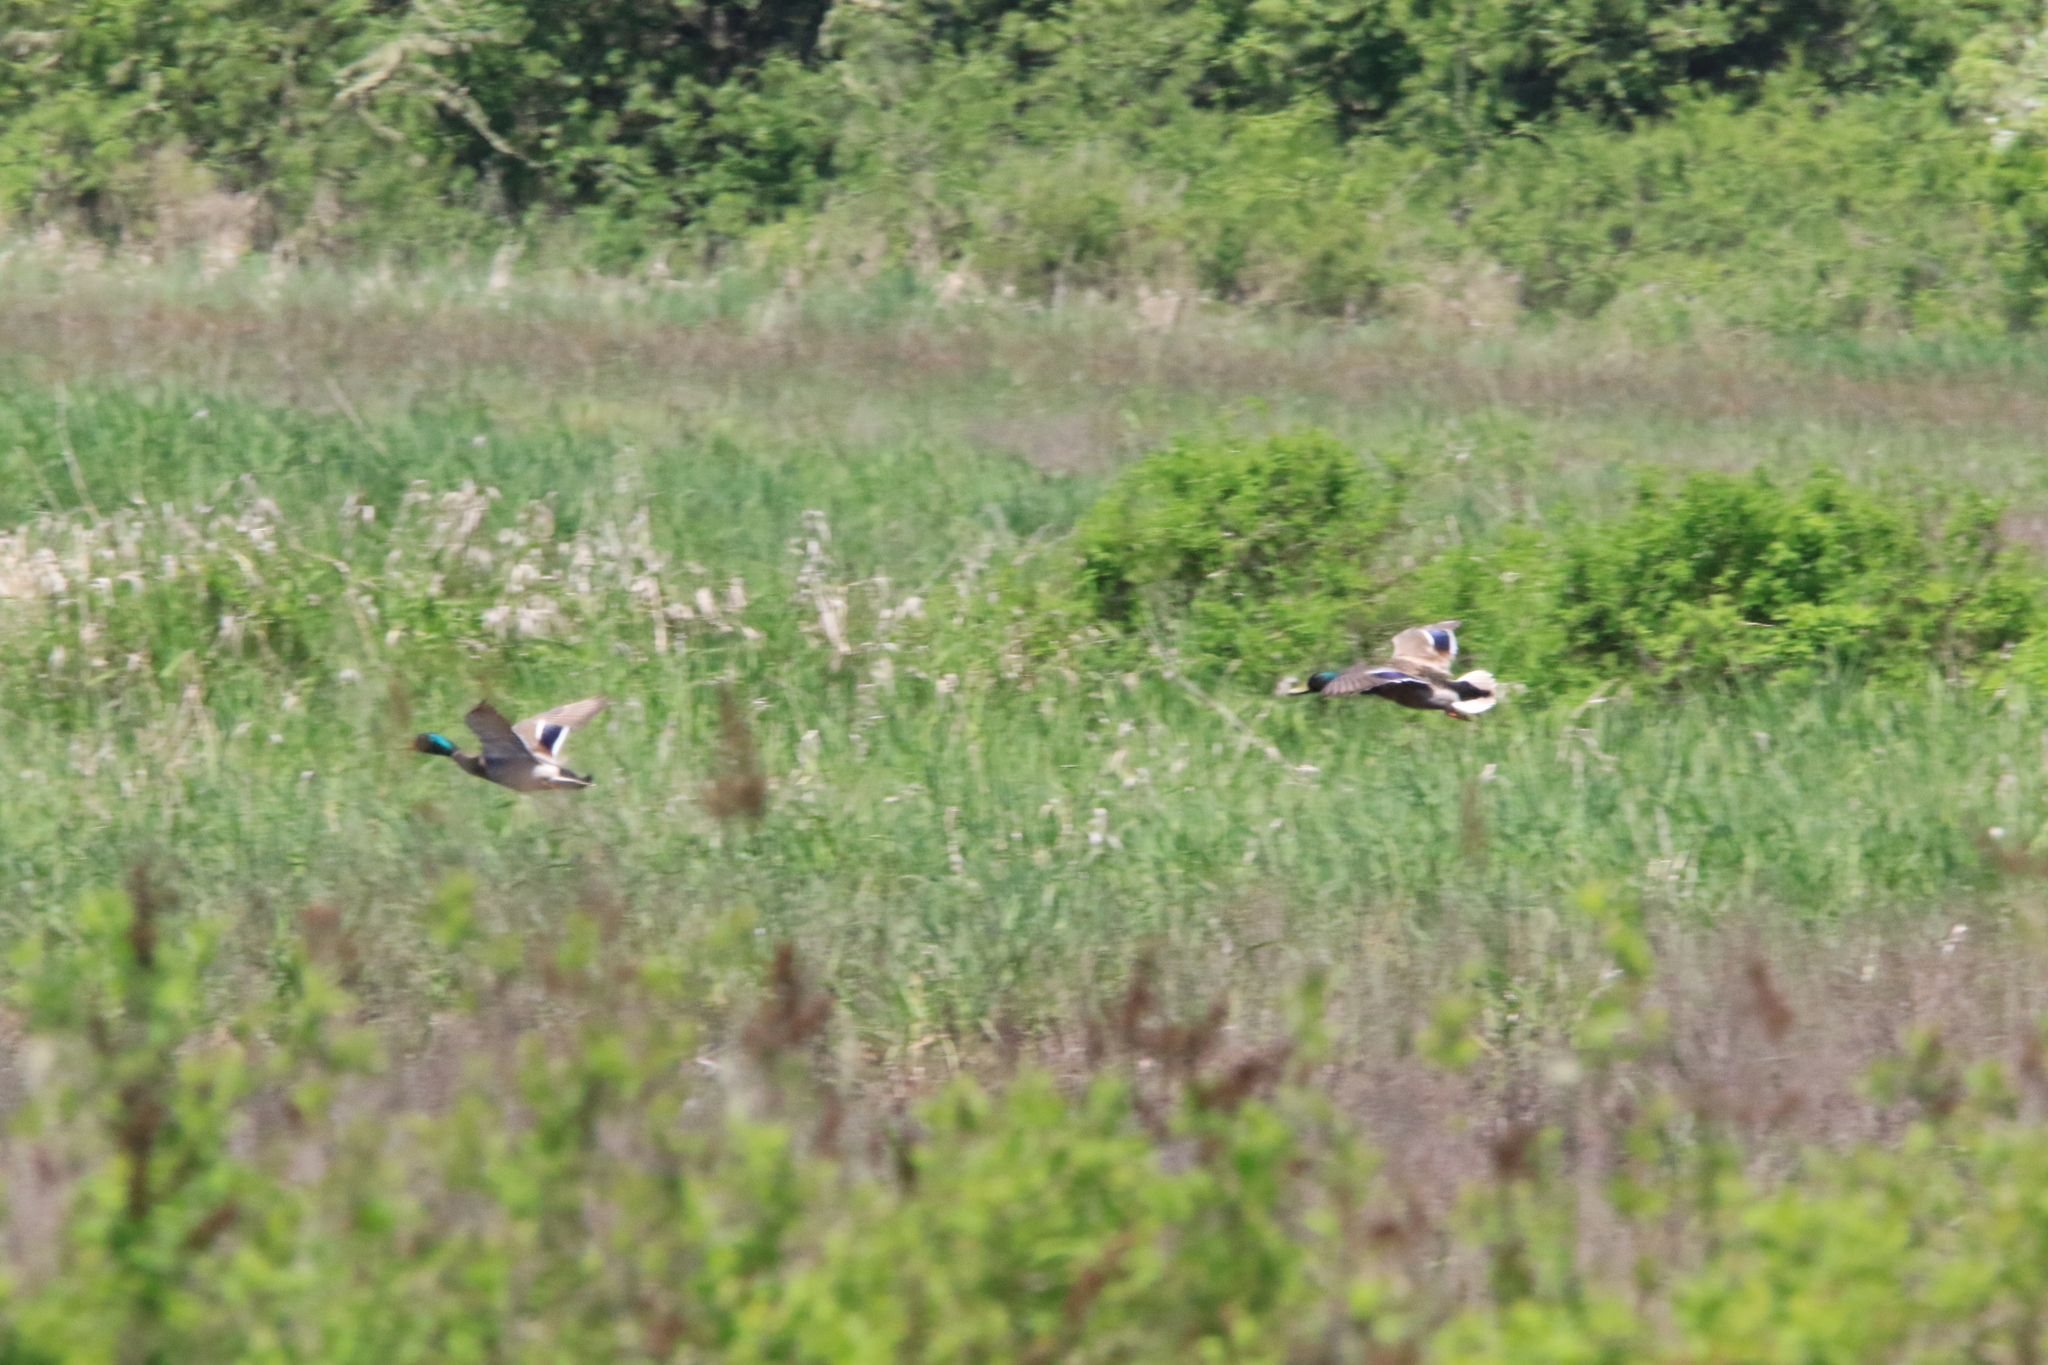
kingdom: Animalia
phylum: Chordata
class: Aves
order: Anseriformes
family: Anatidae
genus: Anas
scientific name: Anas platyrhynchos
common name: Mallard
